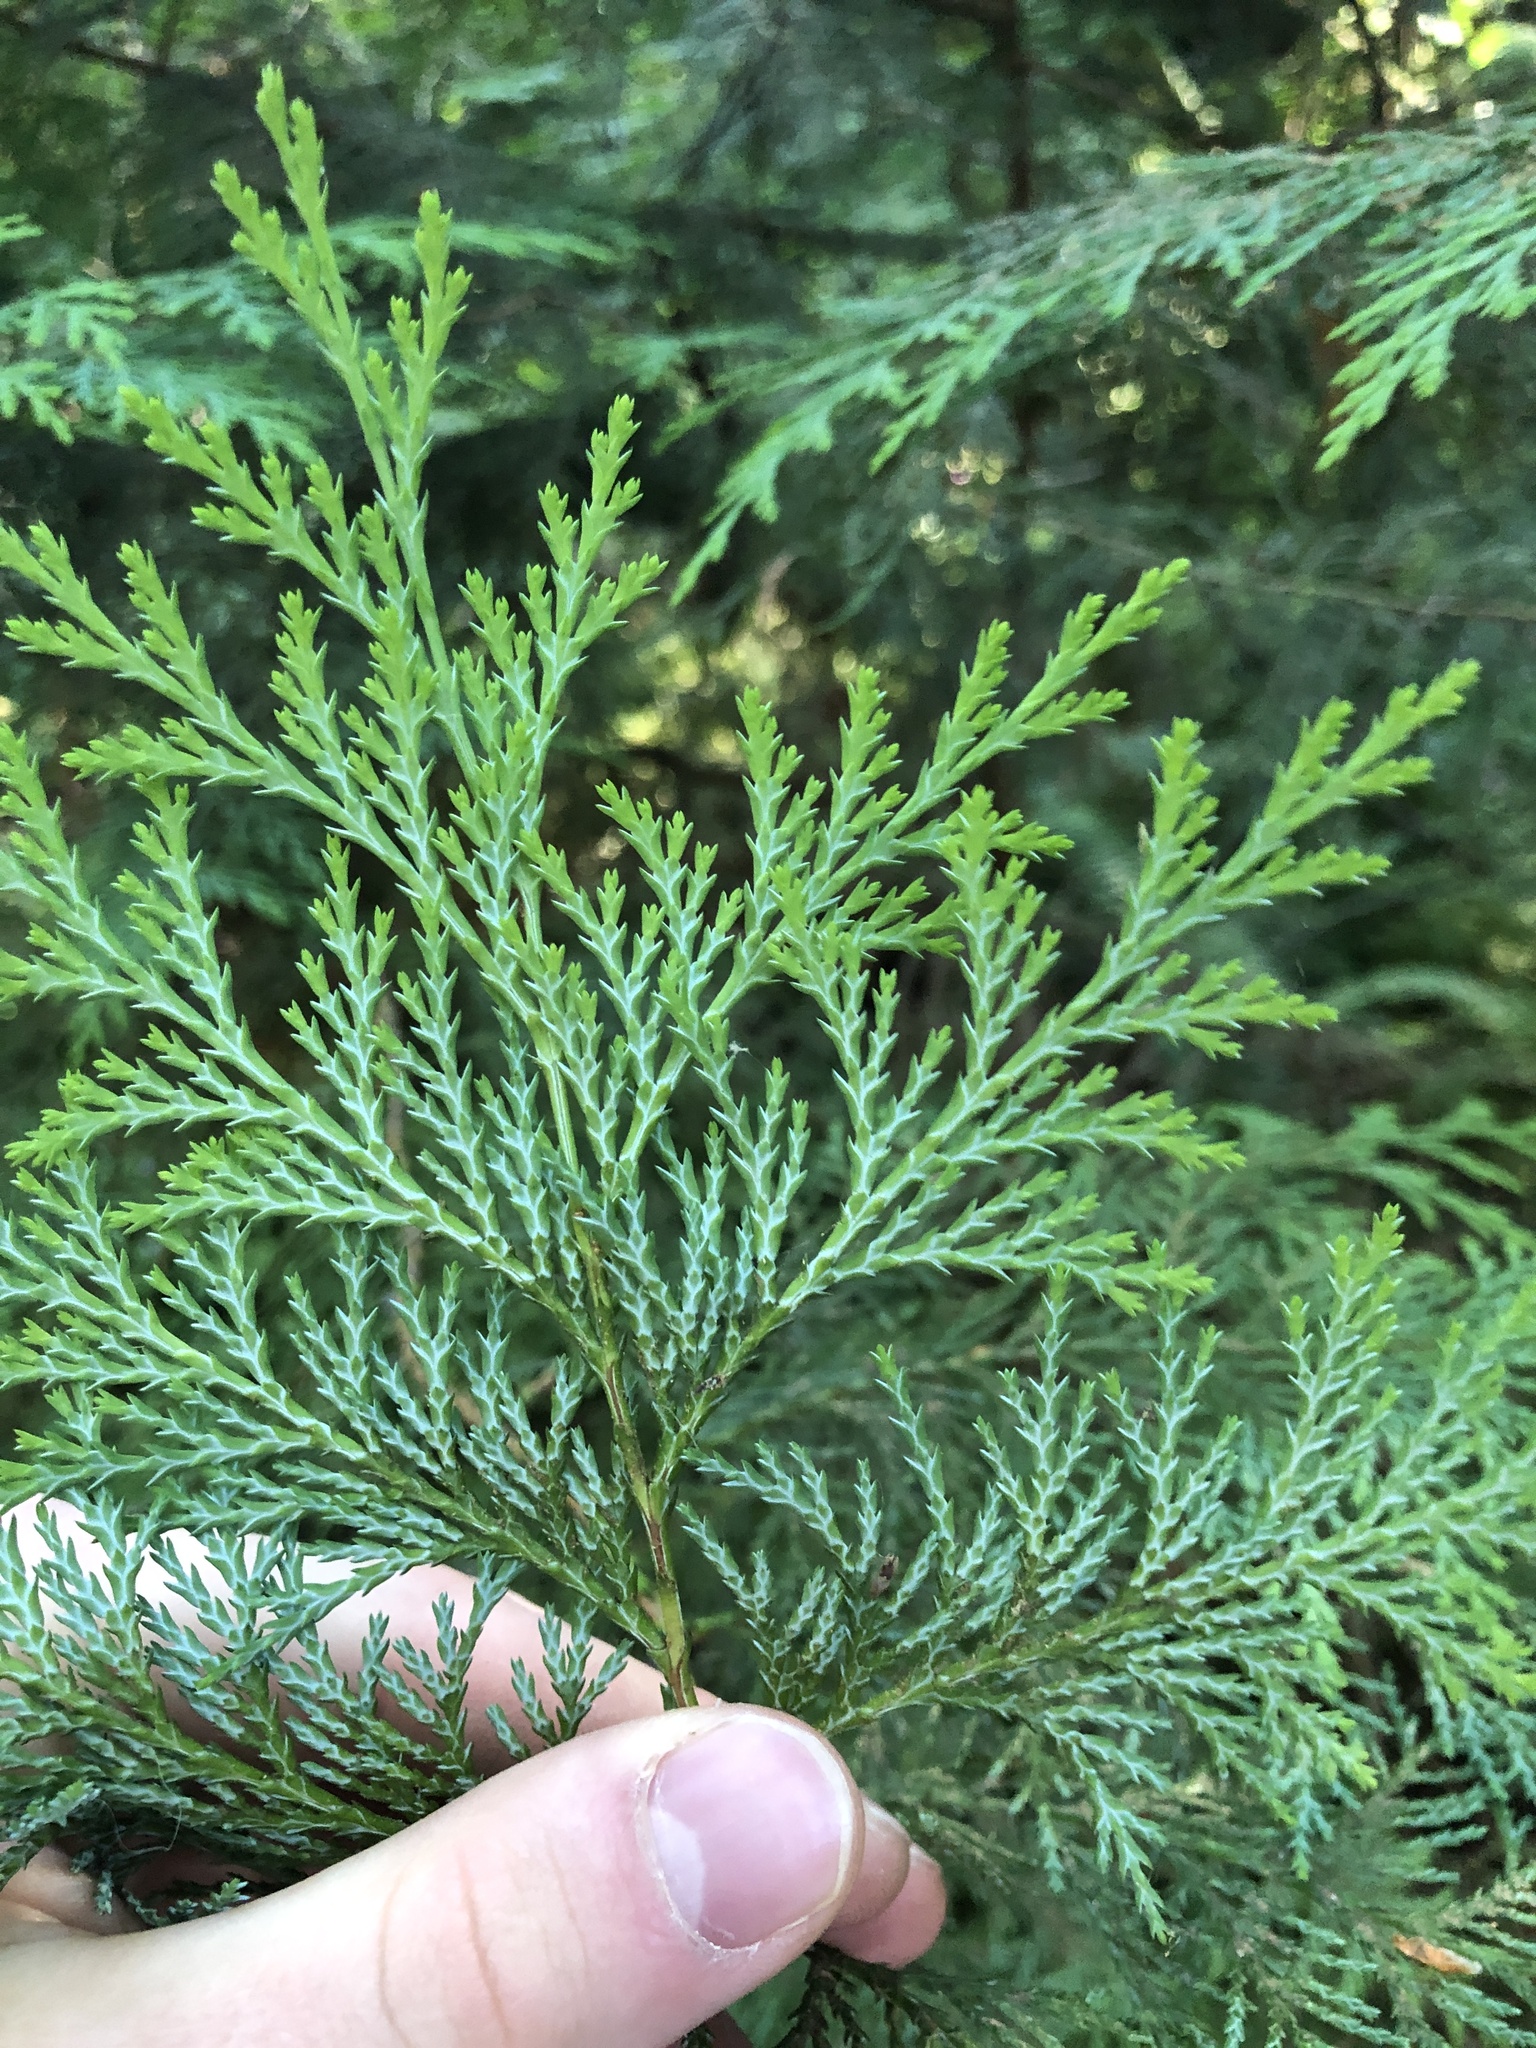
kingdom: Plantae
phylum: Tracheophyta
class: Pinopsida
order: Pinales
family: Cupressaceae
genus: Chamaecyparis
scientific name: Chamaecyparis lawsoniana
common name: Lawson's cypress
